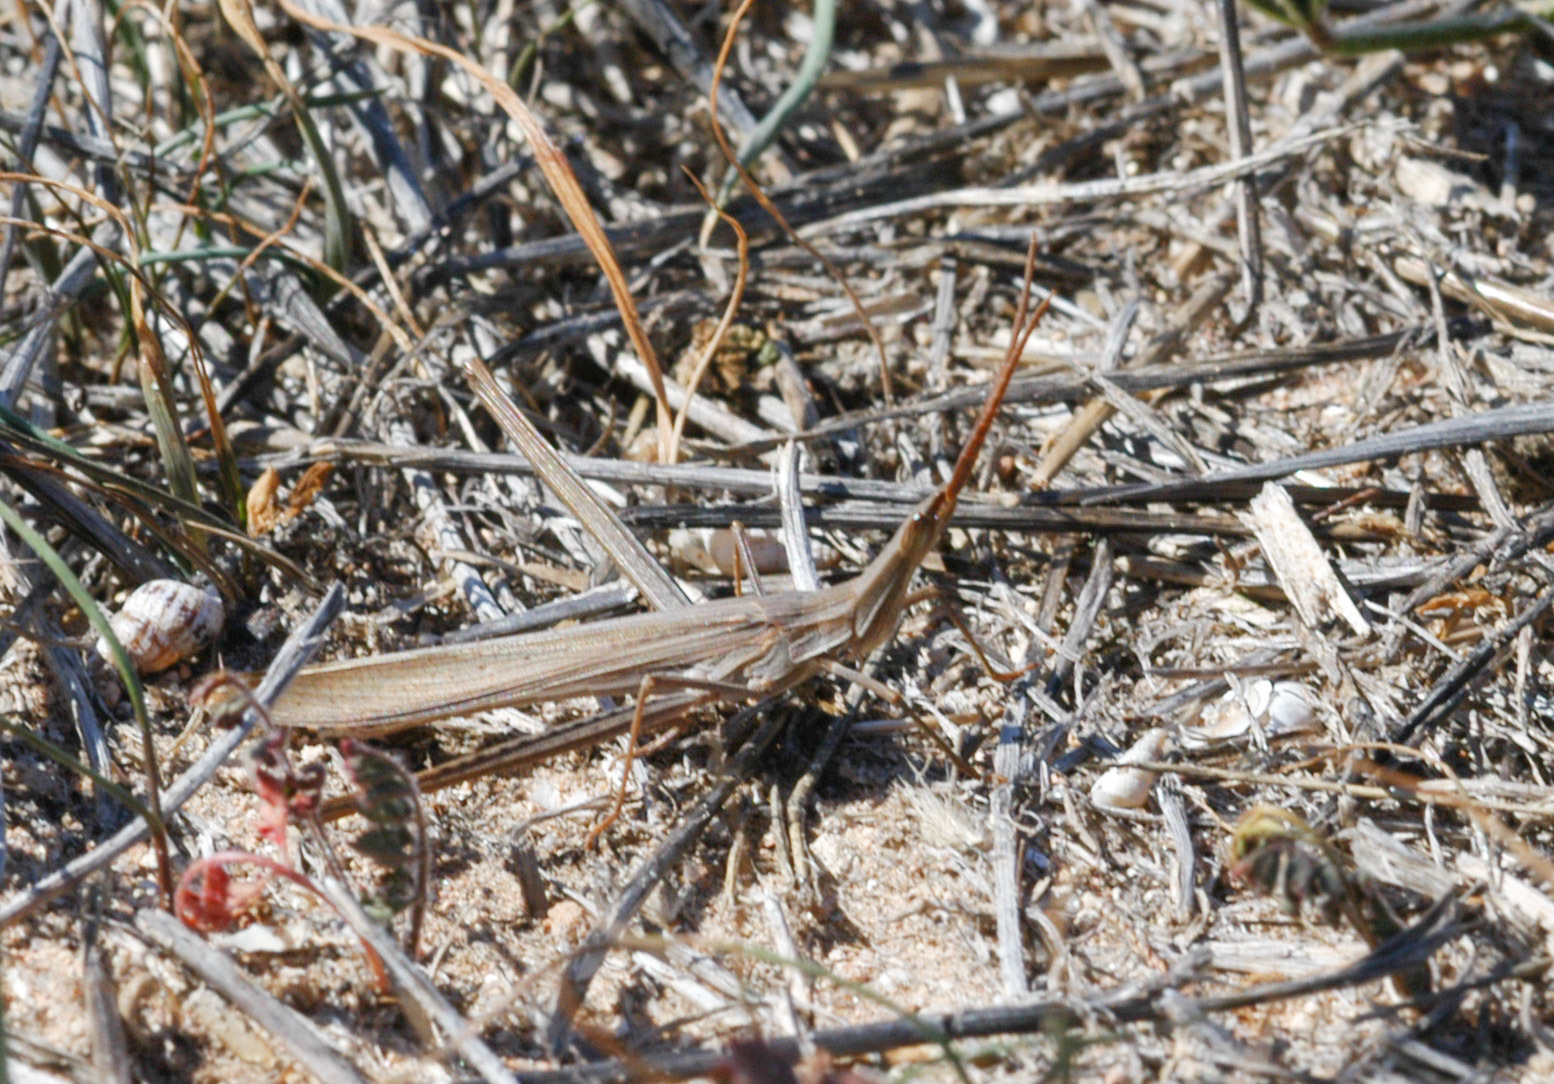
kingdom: Animalia
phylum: Arthropoda
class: Insecta
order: Orthoptera
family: Acrididae
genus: Acrida
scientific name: Acrida conica
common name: Giant green slantface
